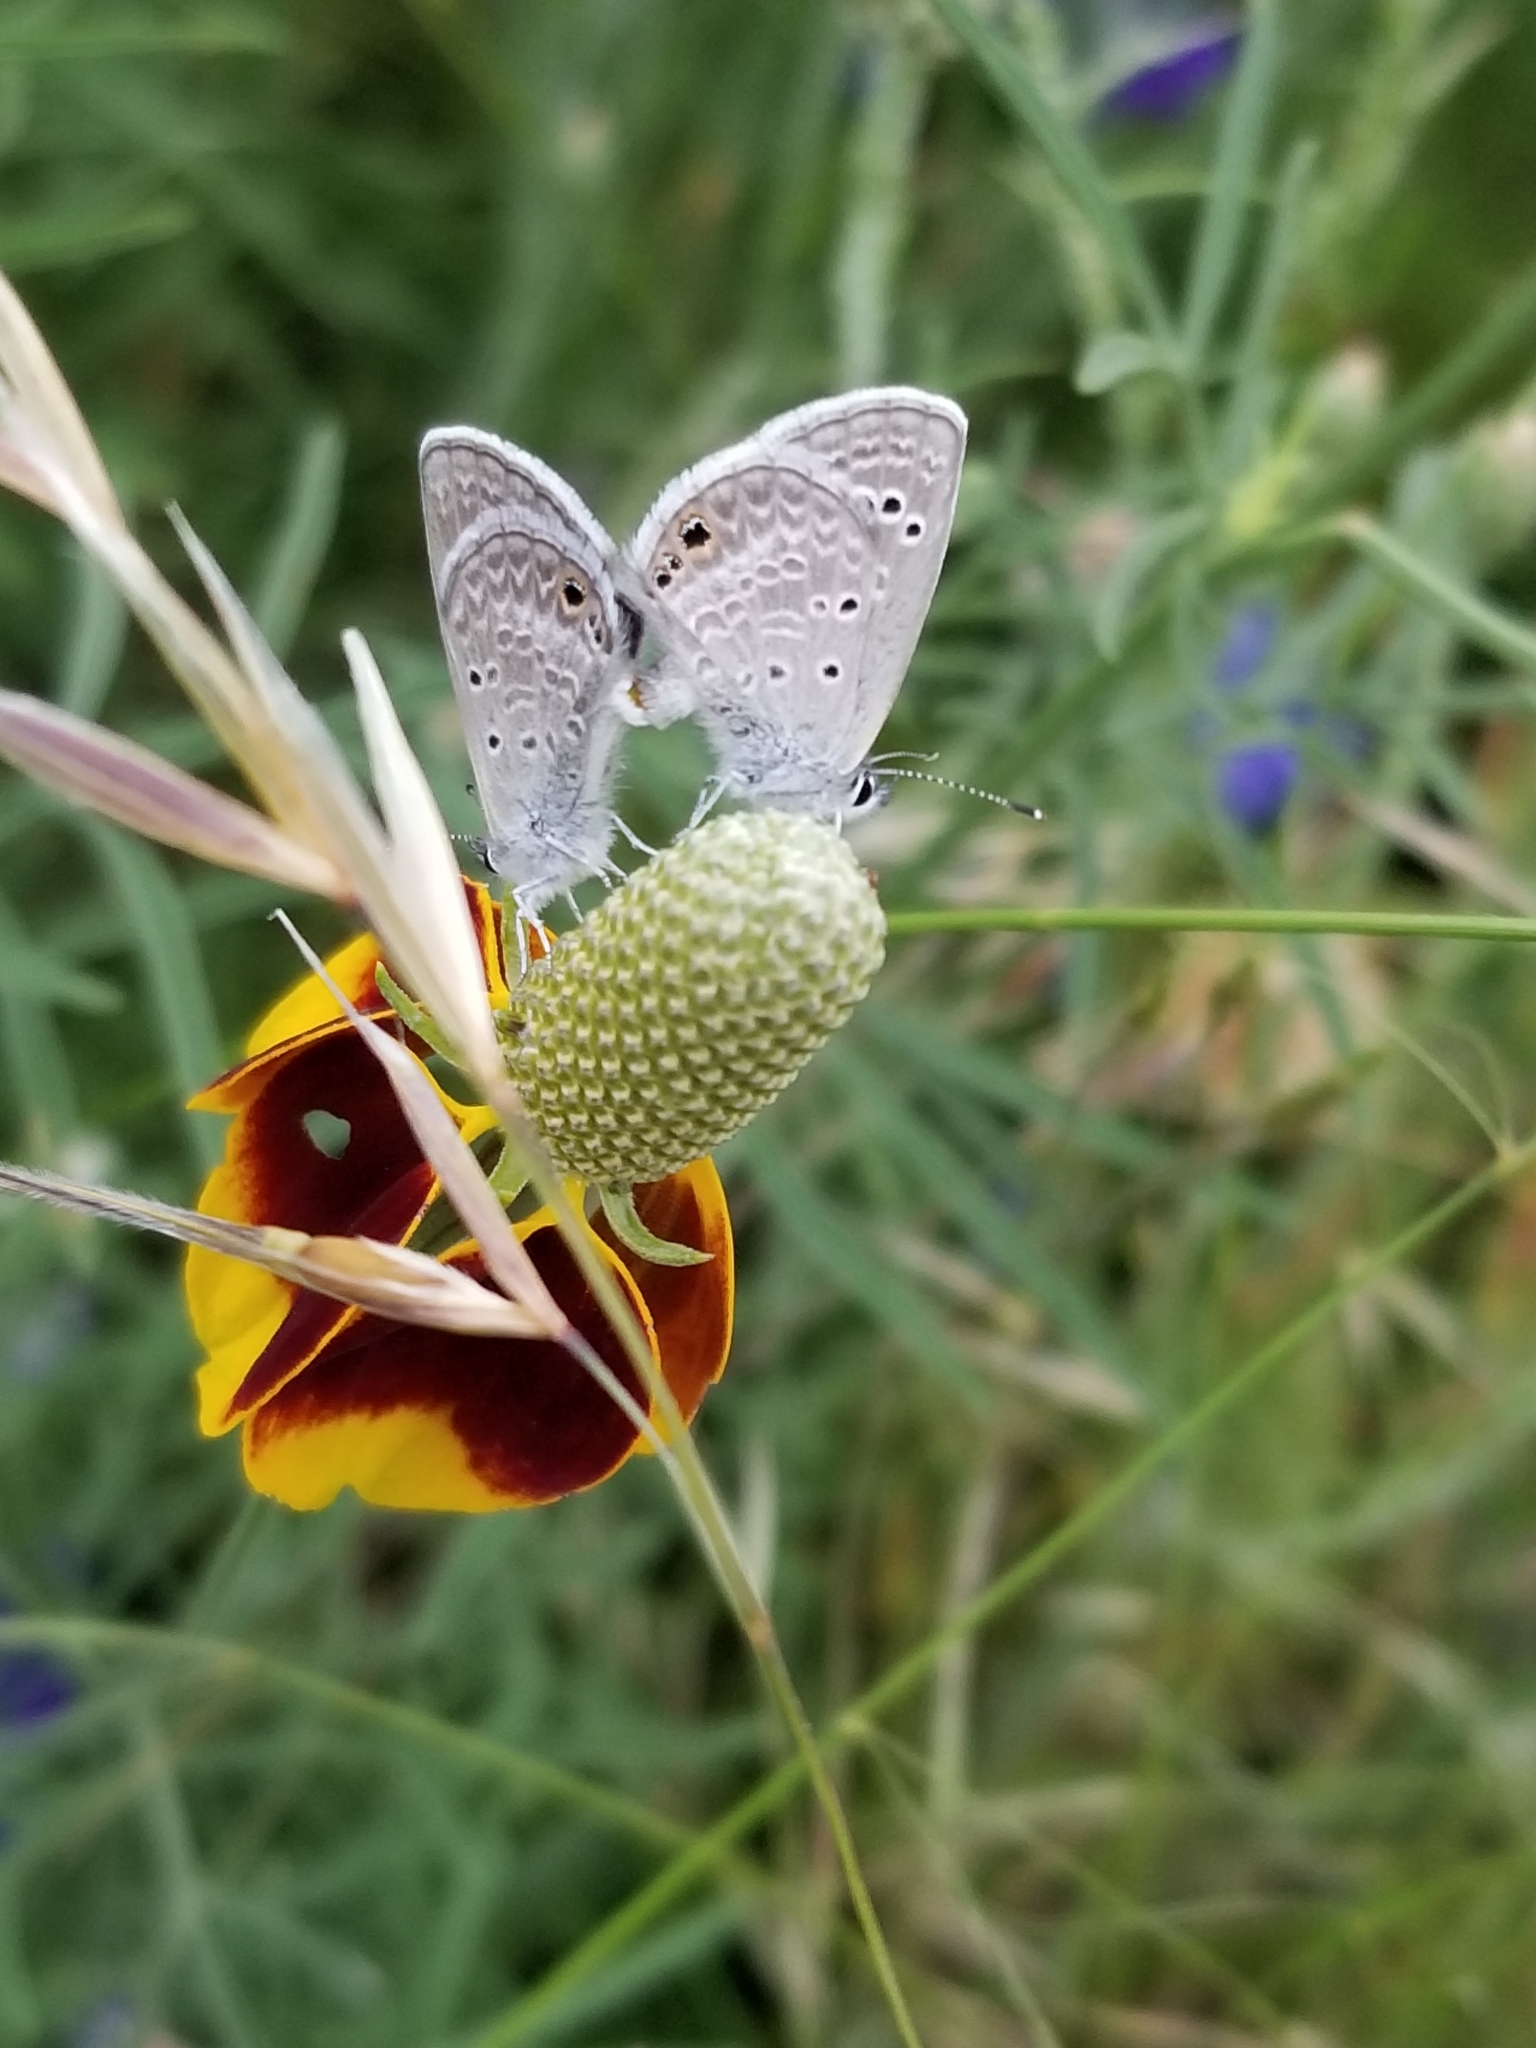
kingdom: Animalia
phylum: Arthropoda
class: Insecta
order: Lepidoptera
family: Lycaenidae
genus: Echinargus
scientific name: Echinargus isola
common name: Reakirt's blue
